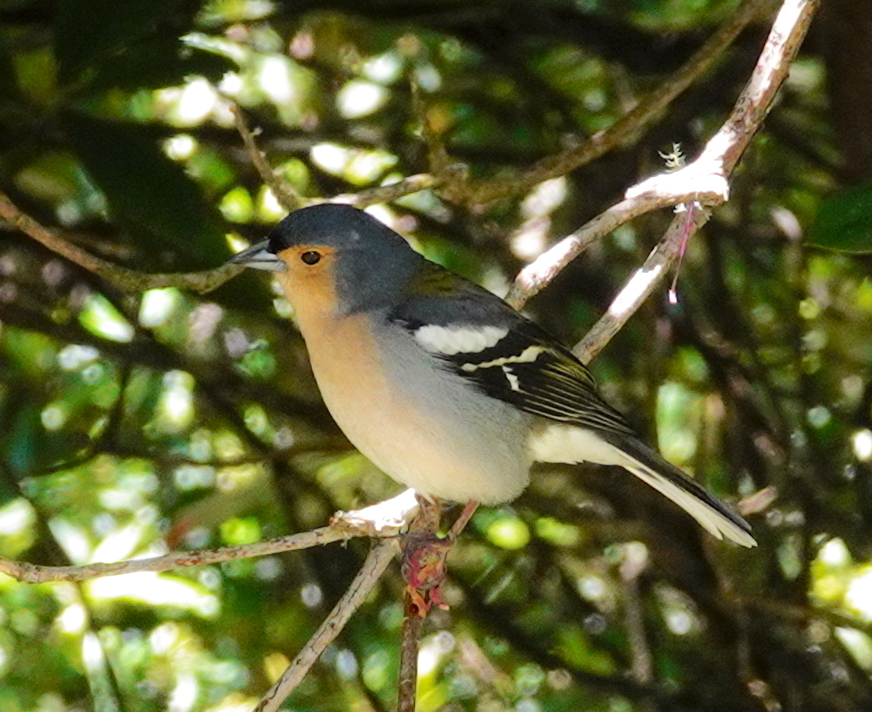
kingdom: Animalia
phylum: Chordata
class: Aves
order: Passeriformes
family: Fringillidae
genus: Fringilla
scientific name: Fringilla maderensis
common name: Madeira chaffinch
